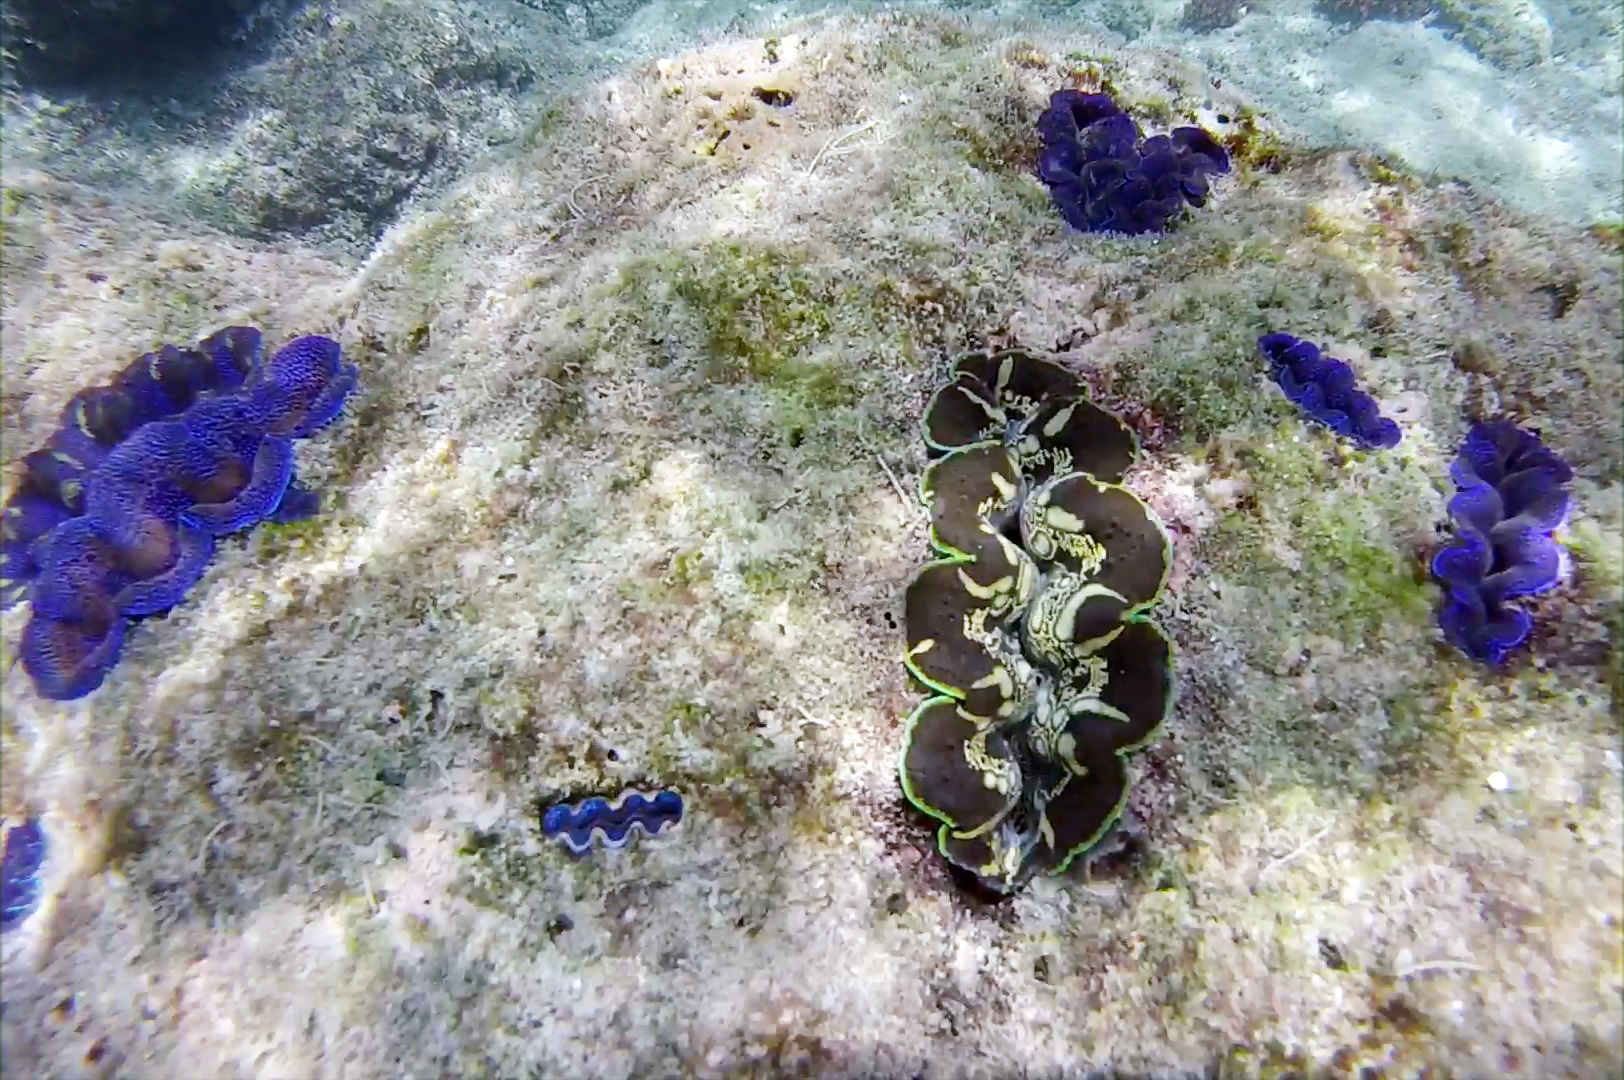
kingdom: Animalia
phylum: Mollusca
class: Bivalvia
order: Cardiida
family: Cardiidae
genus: Tridacna
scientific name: Tridacna crocea
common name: Boring clam
